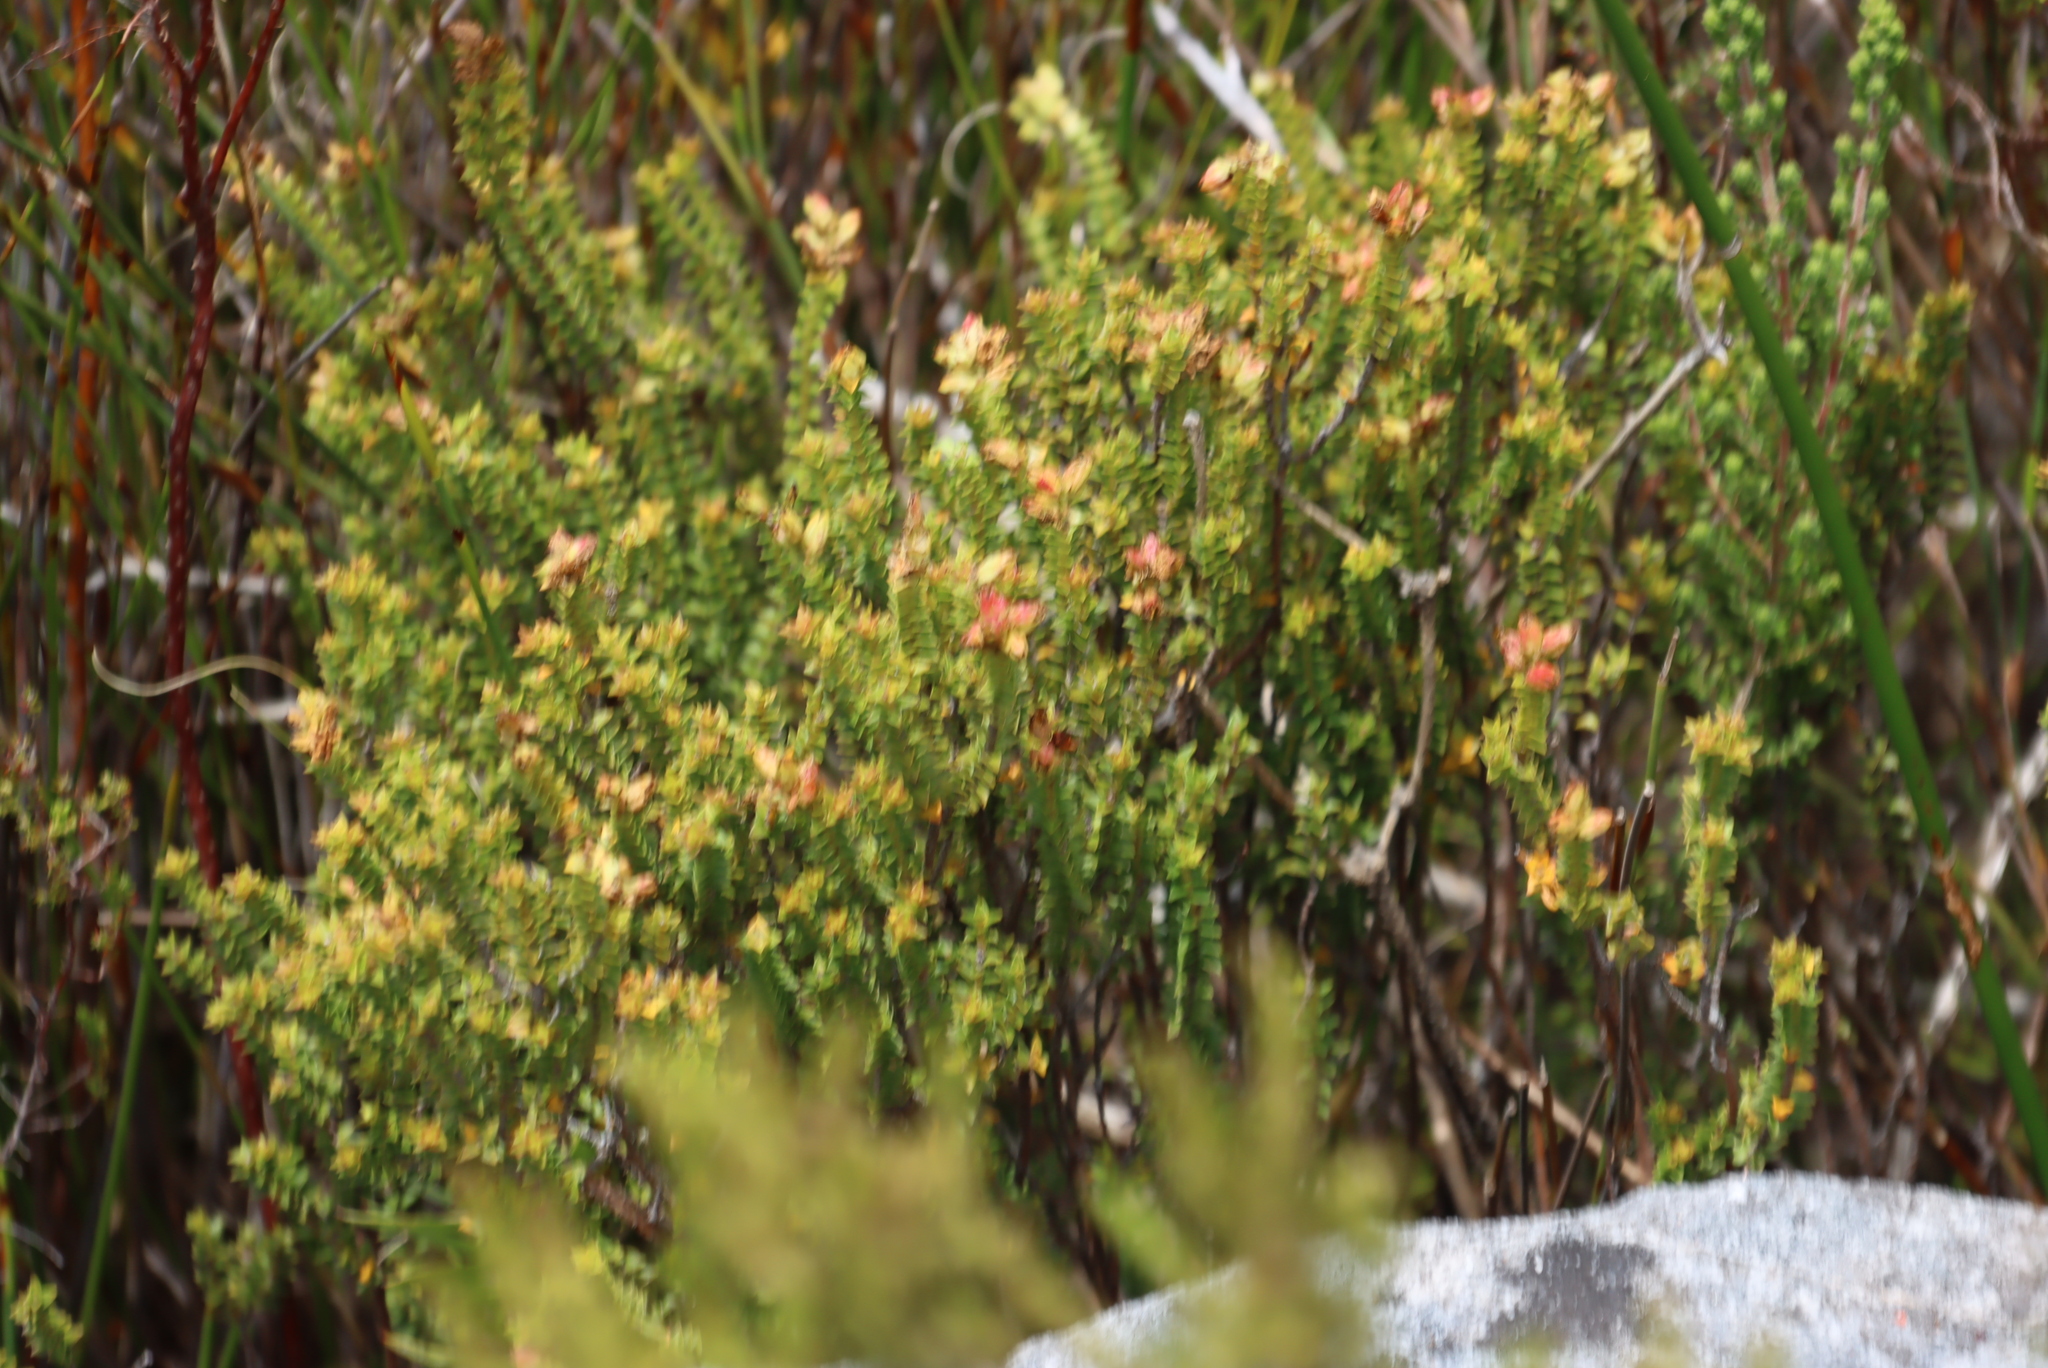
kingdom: Plantae
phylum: Tracheophyta
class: Magnoliopsida
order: Myrtales
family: Penaeaceae
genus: Penaea
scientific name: Penaea mucronata
